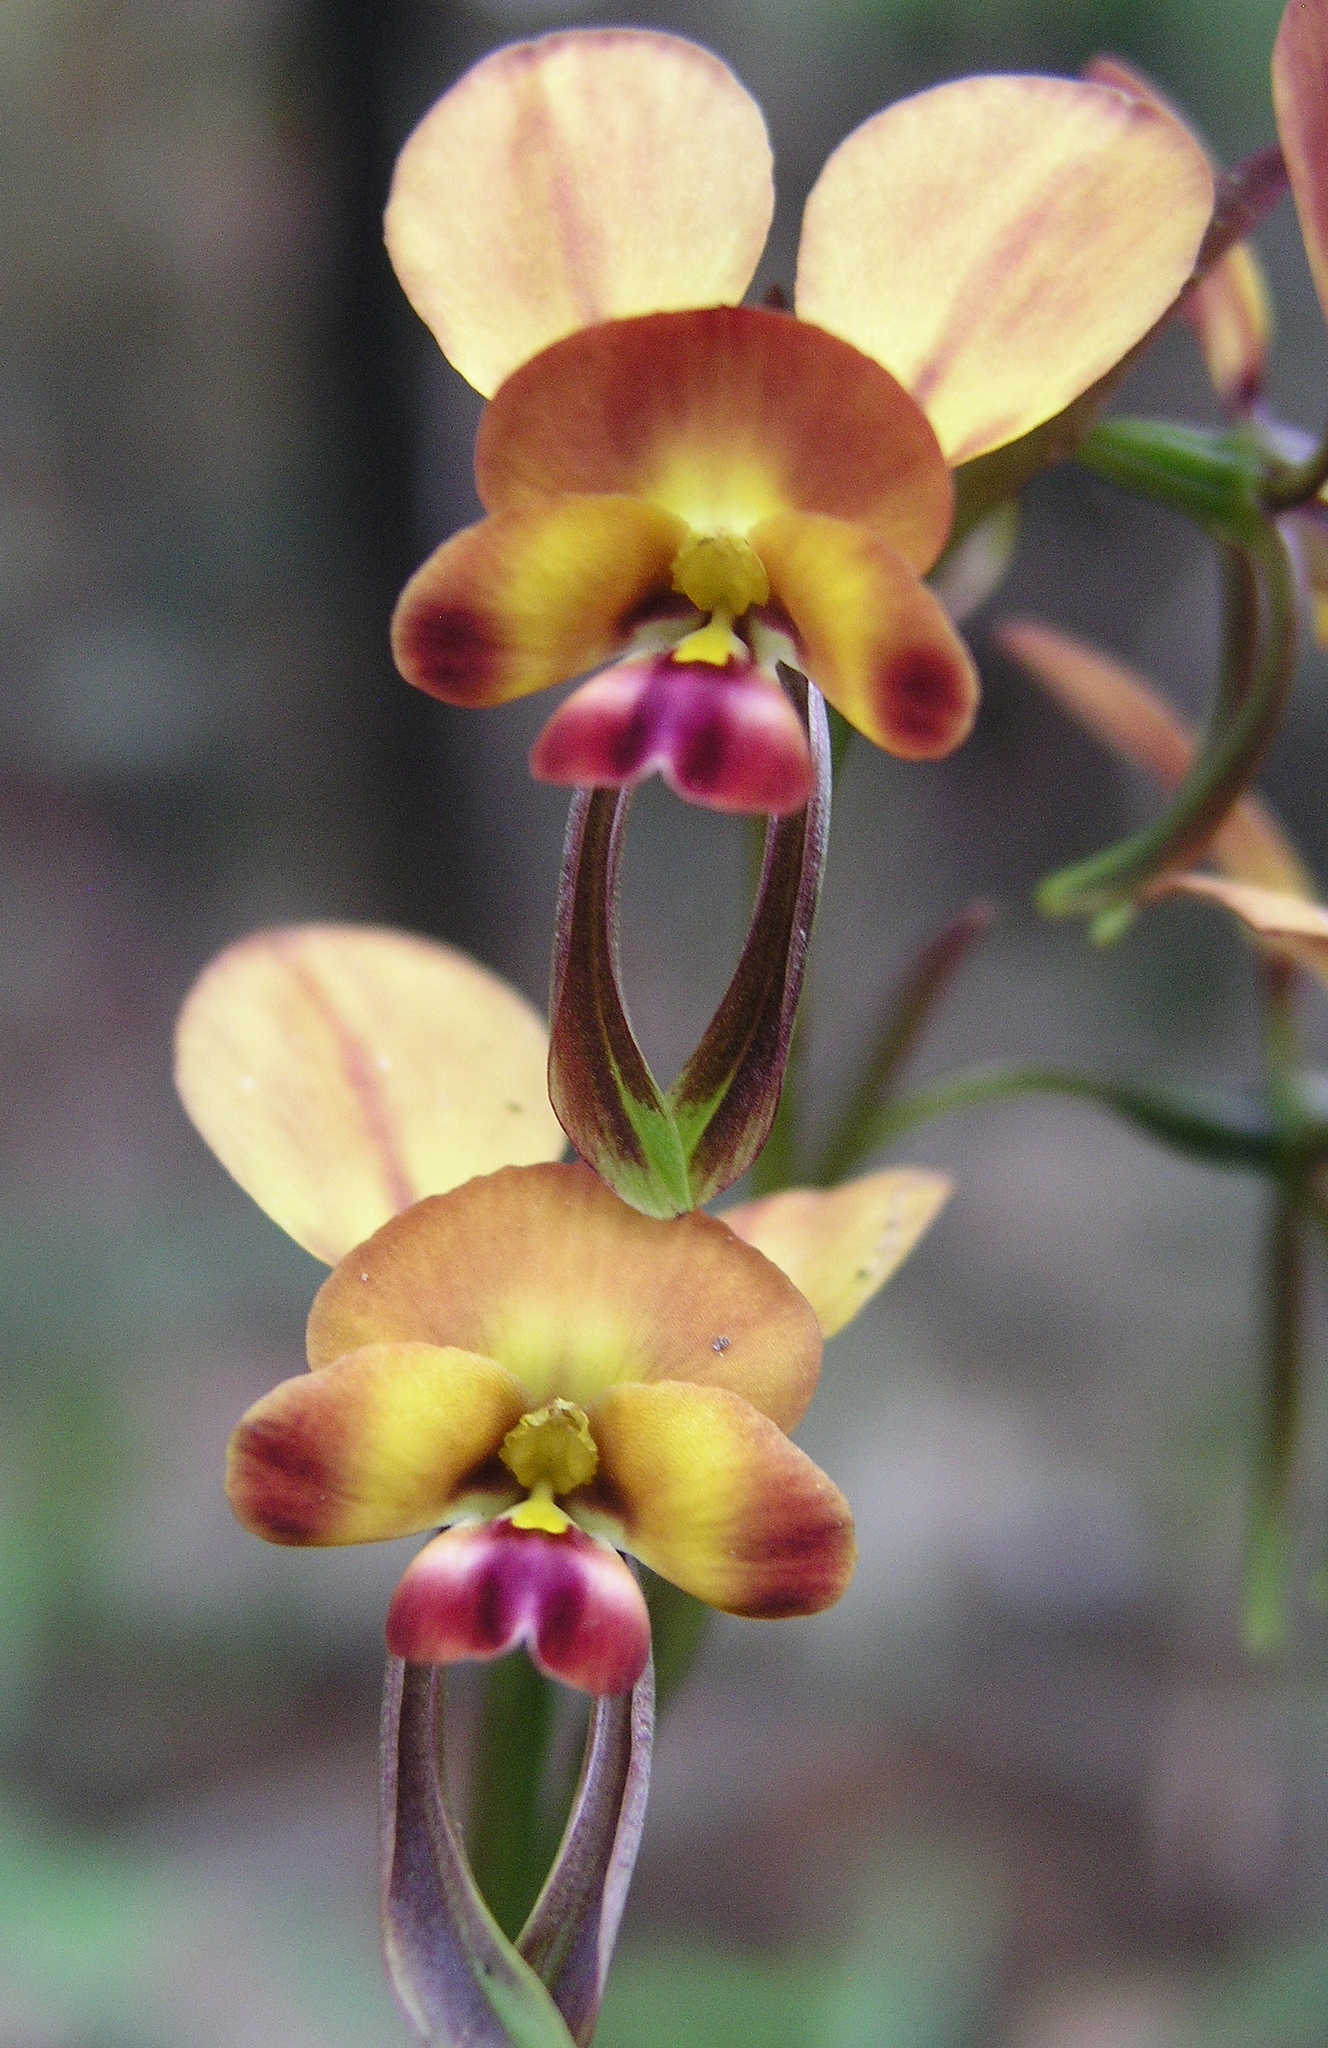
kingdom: Plantae
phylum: Tracheophyta
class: Liliopsida
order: Asparagales
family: Orchidaceae
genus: Diuris
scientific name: Diuris longifolia
